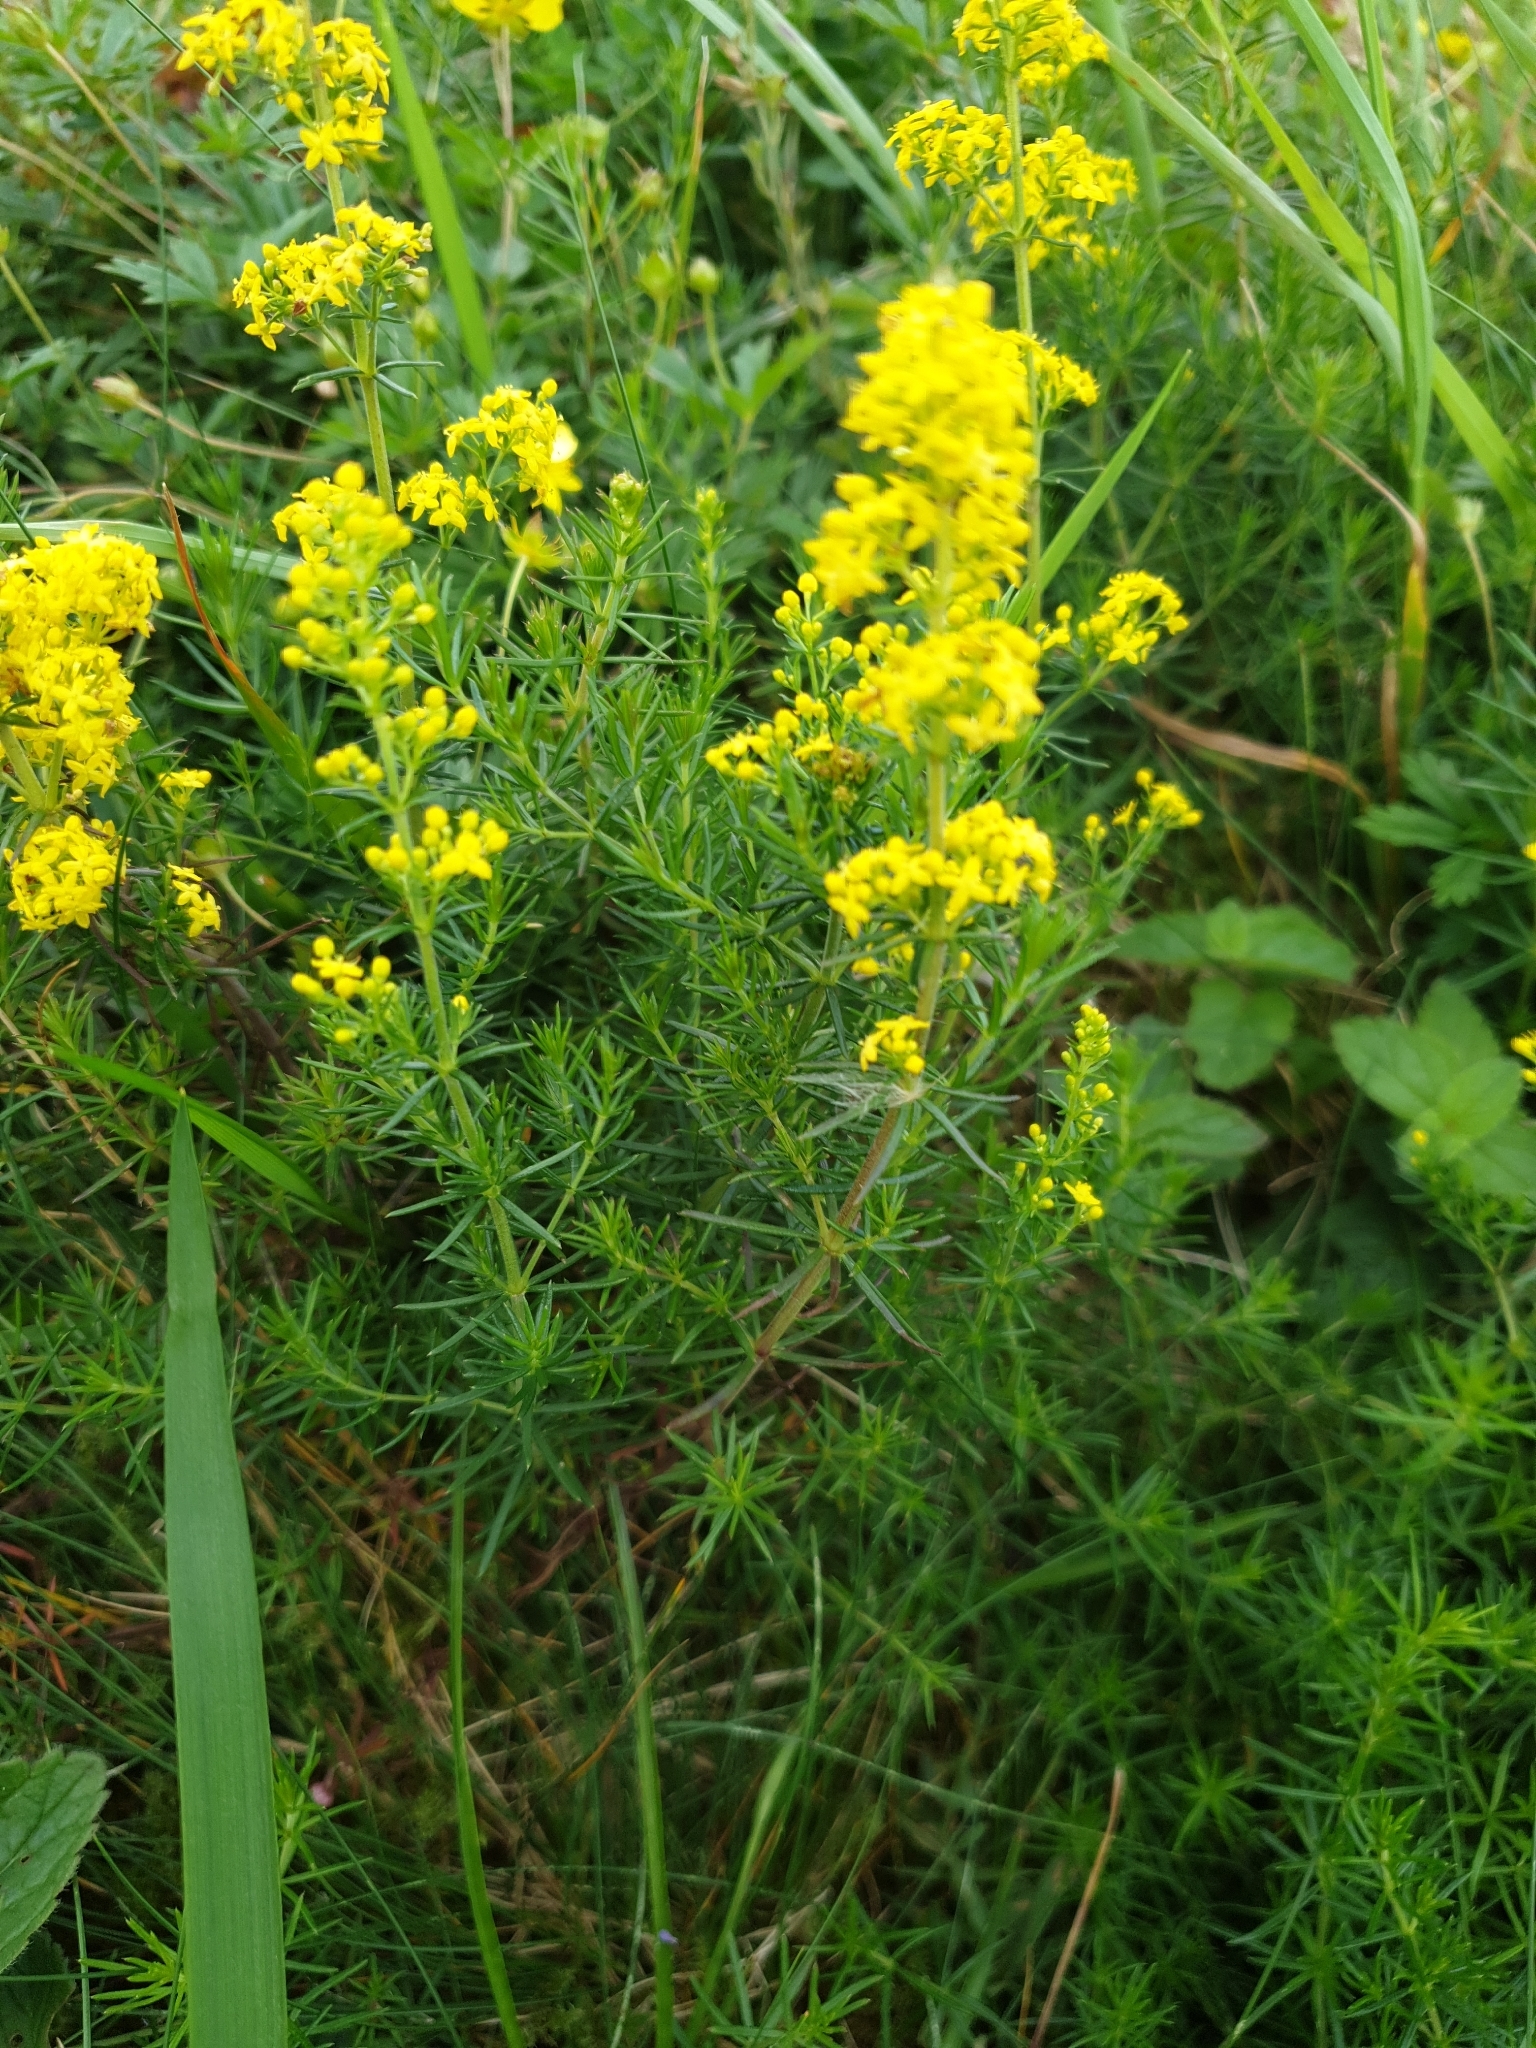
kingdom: Plantae
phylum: Tracheophyta
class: Magnoliopsida
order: Gentianales
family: Rubiaceae
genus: Galium
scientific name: Galium verum
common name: Lady's bedstraw
